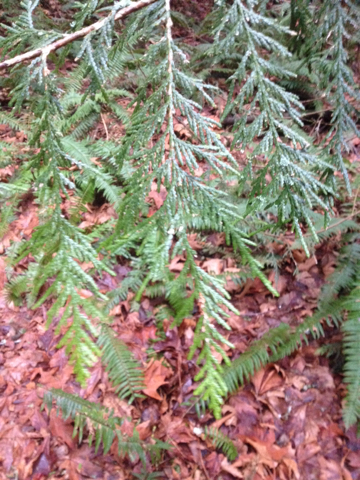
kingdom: Plantae
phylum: Tracheophyta
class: Pinopsida
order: Pinales
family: Cupressaceae
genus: Thuja
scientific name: Thuja plicata
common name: Western red-cedar
